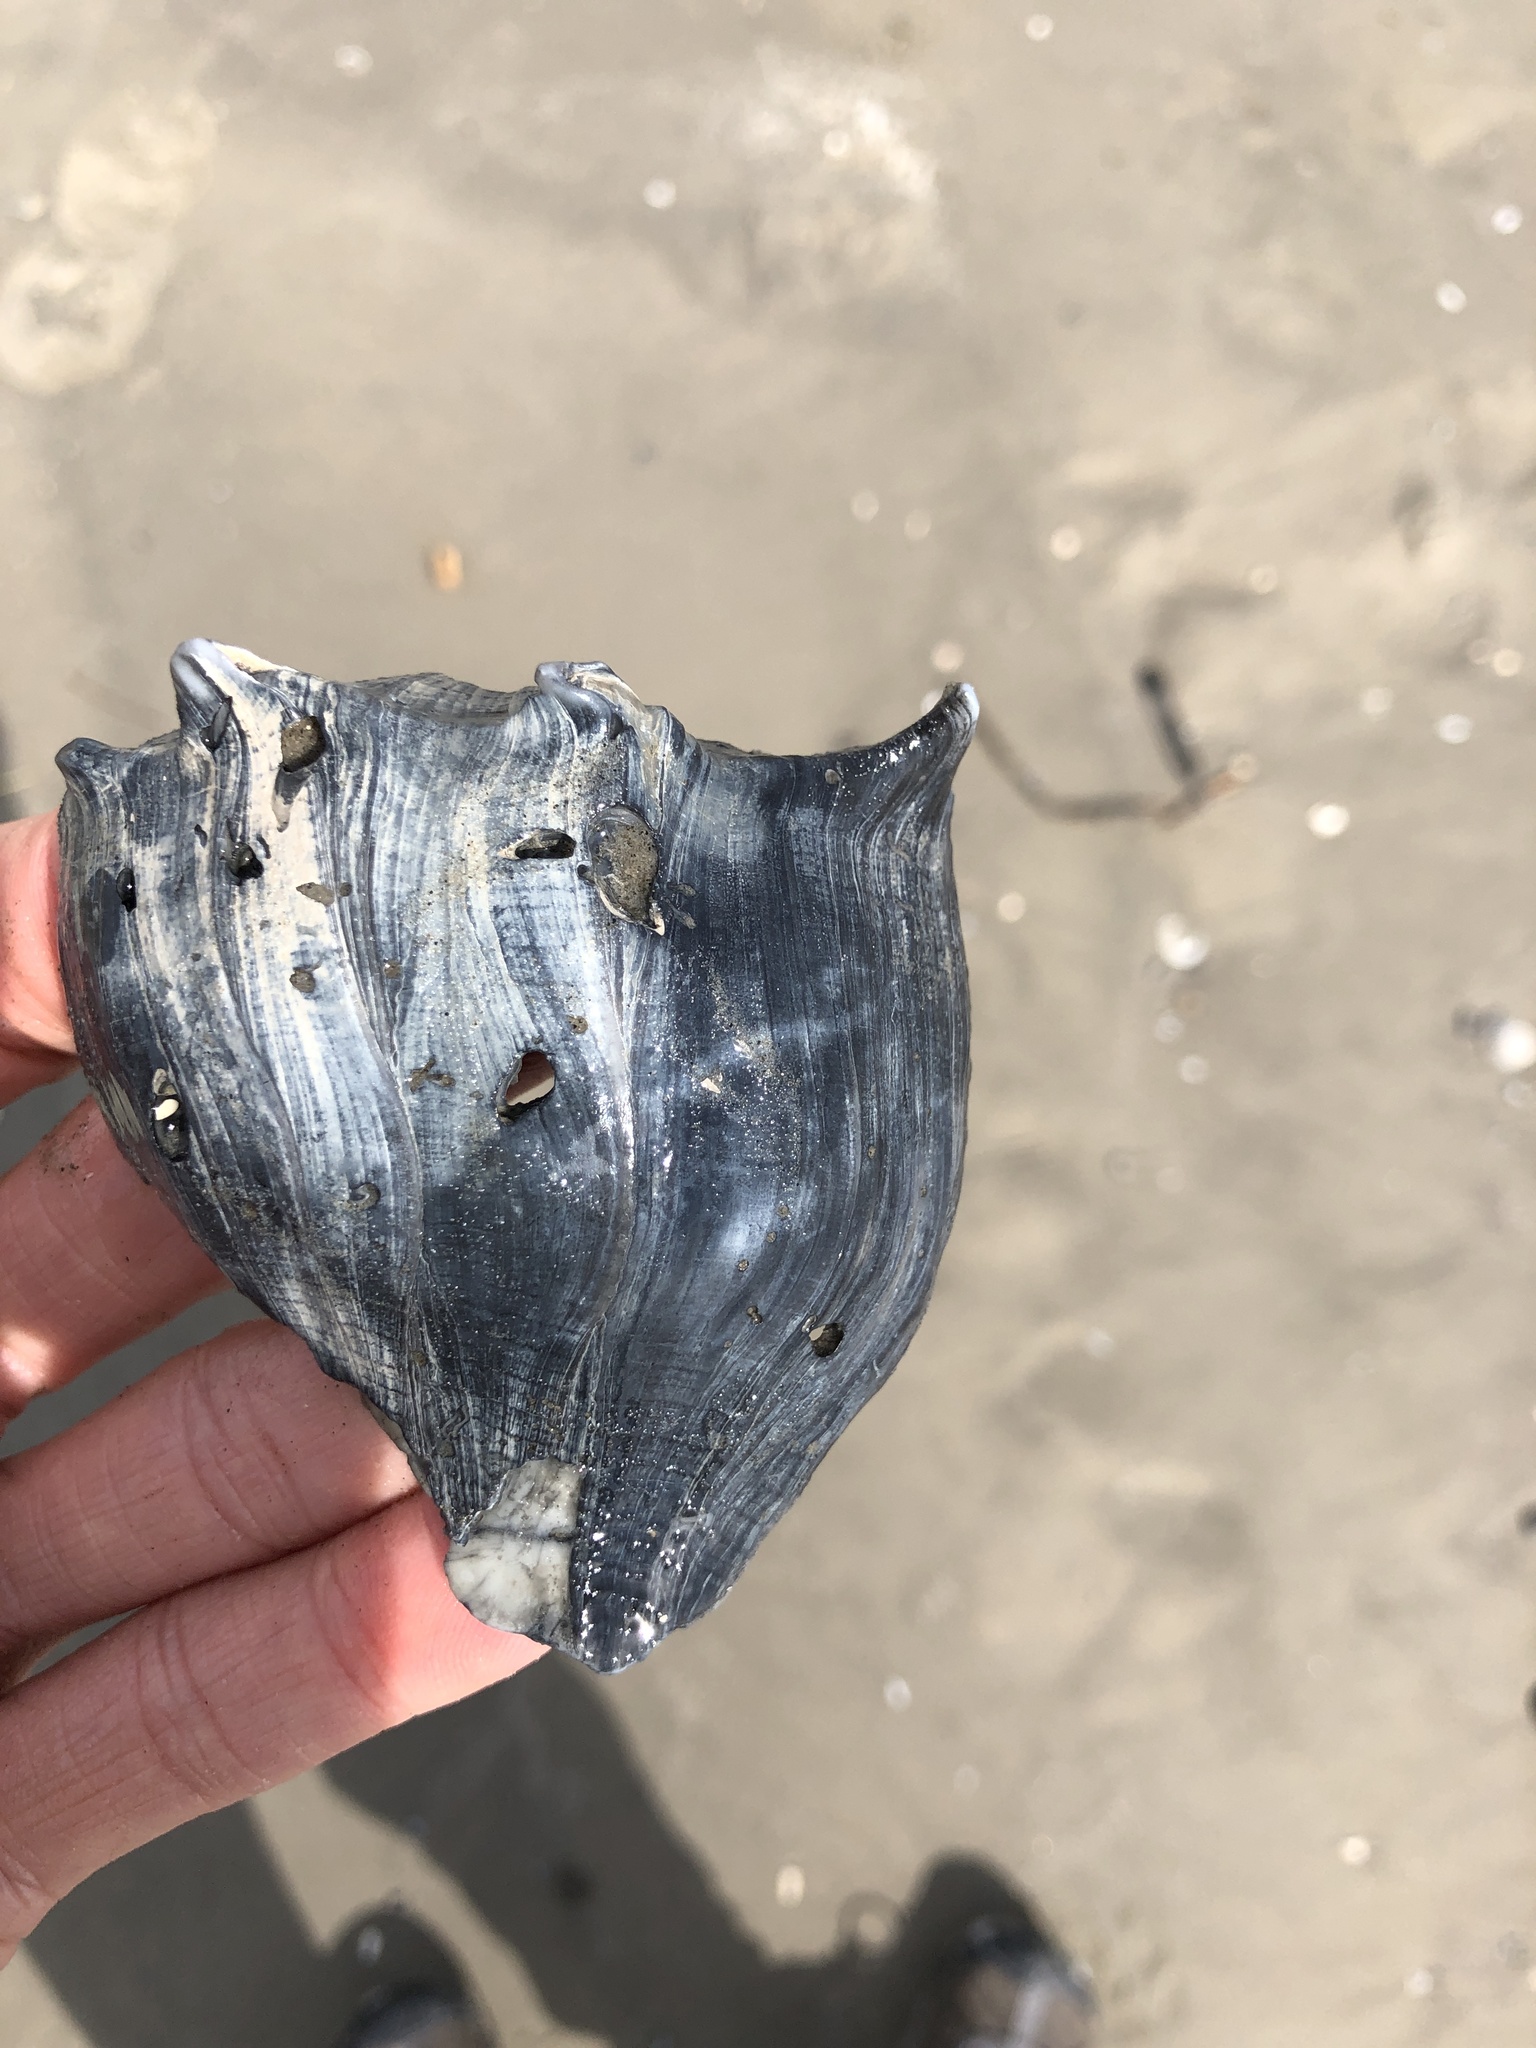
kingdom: Animalia
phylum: Mollusca
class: Gastropoda
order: Neogastropoda
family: Busyconidae
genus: Sinistrofulgur
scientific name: Sinistrofulgur pulleyi
